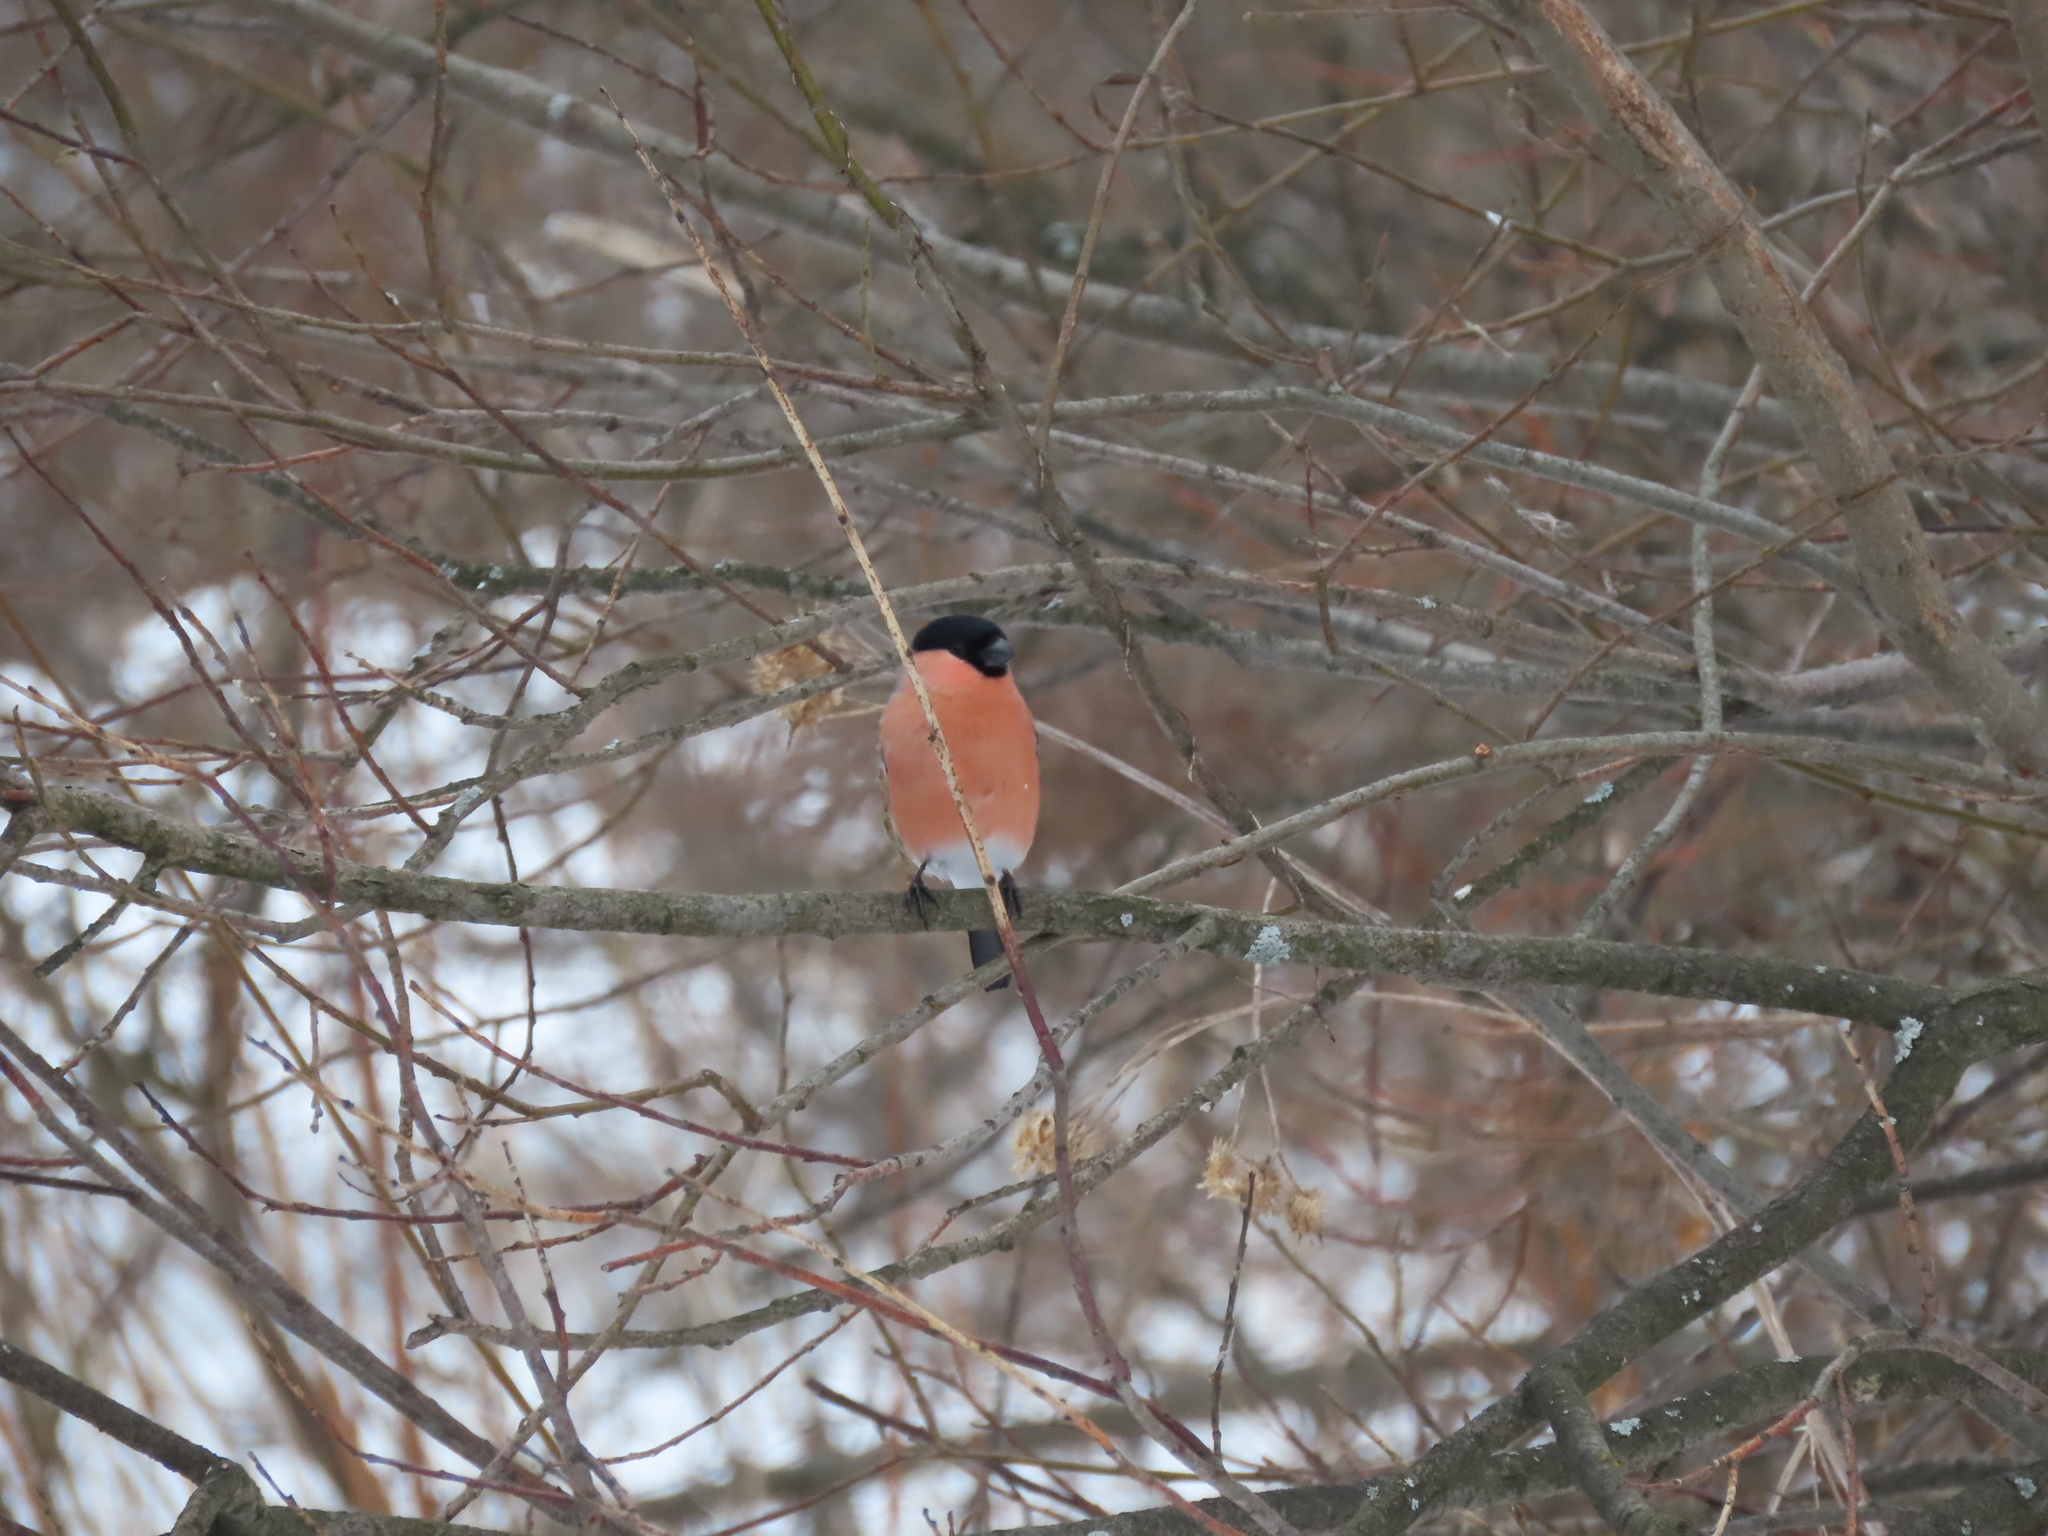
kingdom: Animalia
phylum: Chordata
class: Aves
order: Passeriformes
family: Fringillidae
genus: Pyrrhula
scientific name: Pyrrhula pyrrhula
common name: Eurasian bullfinch
